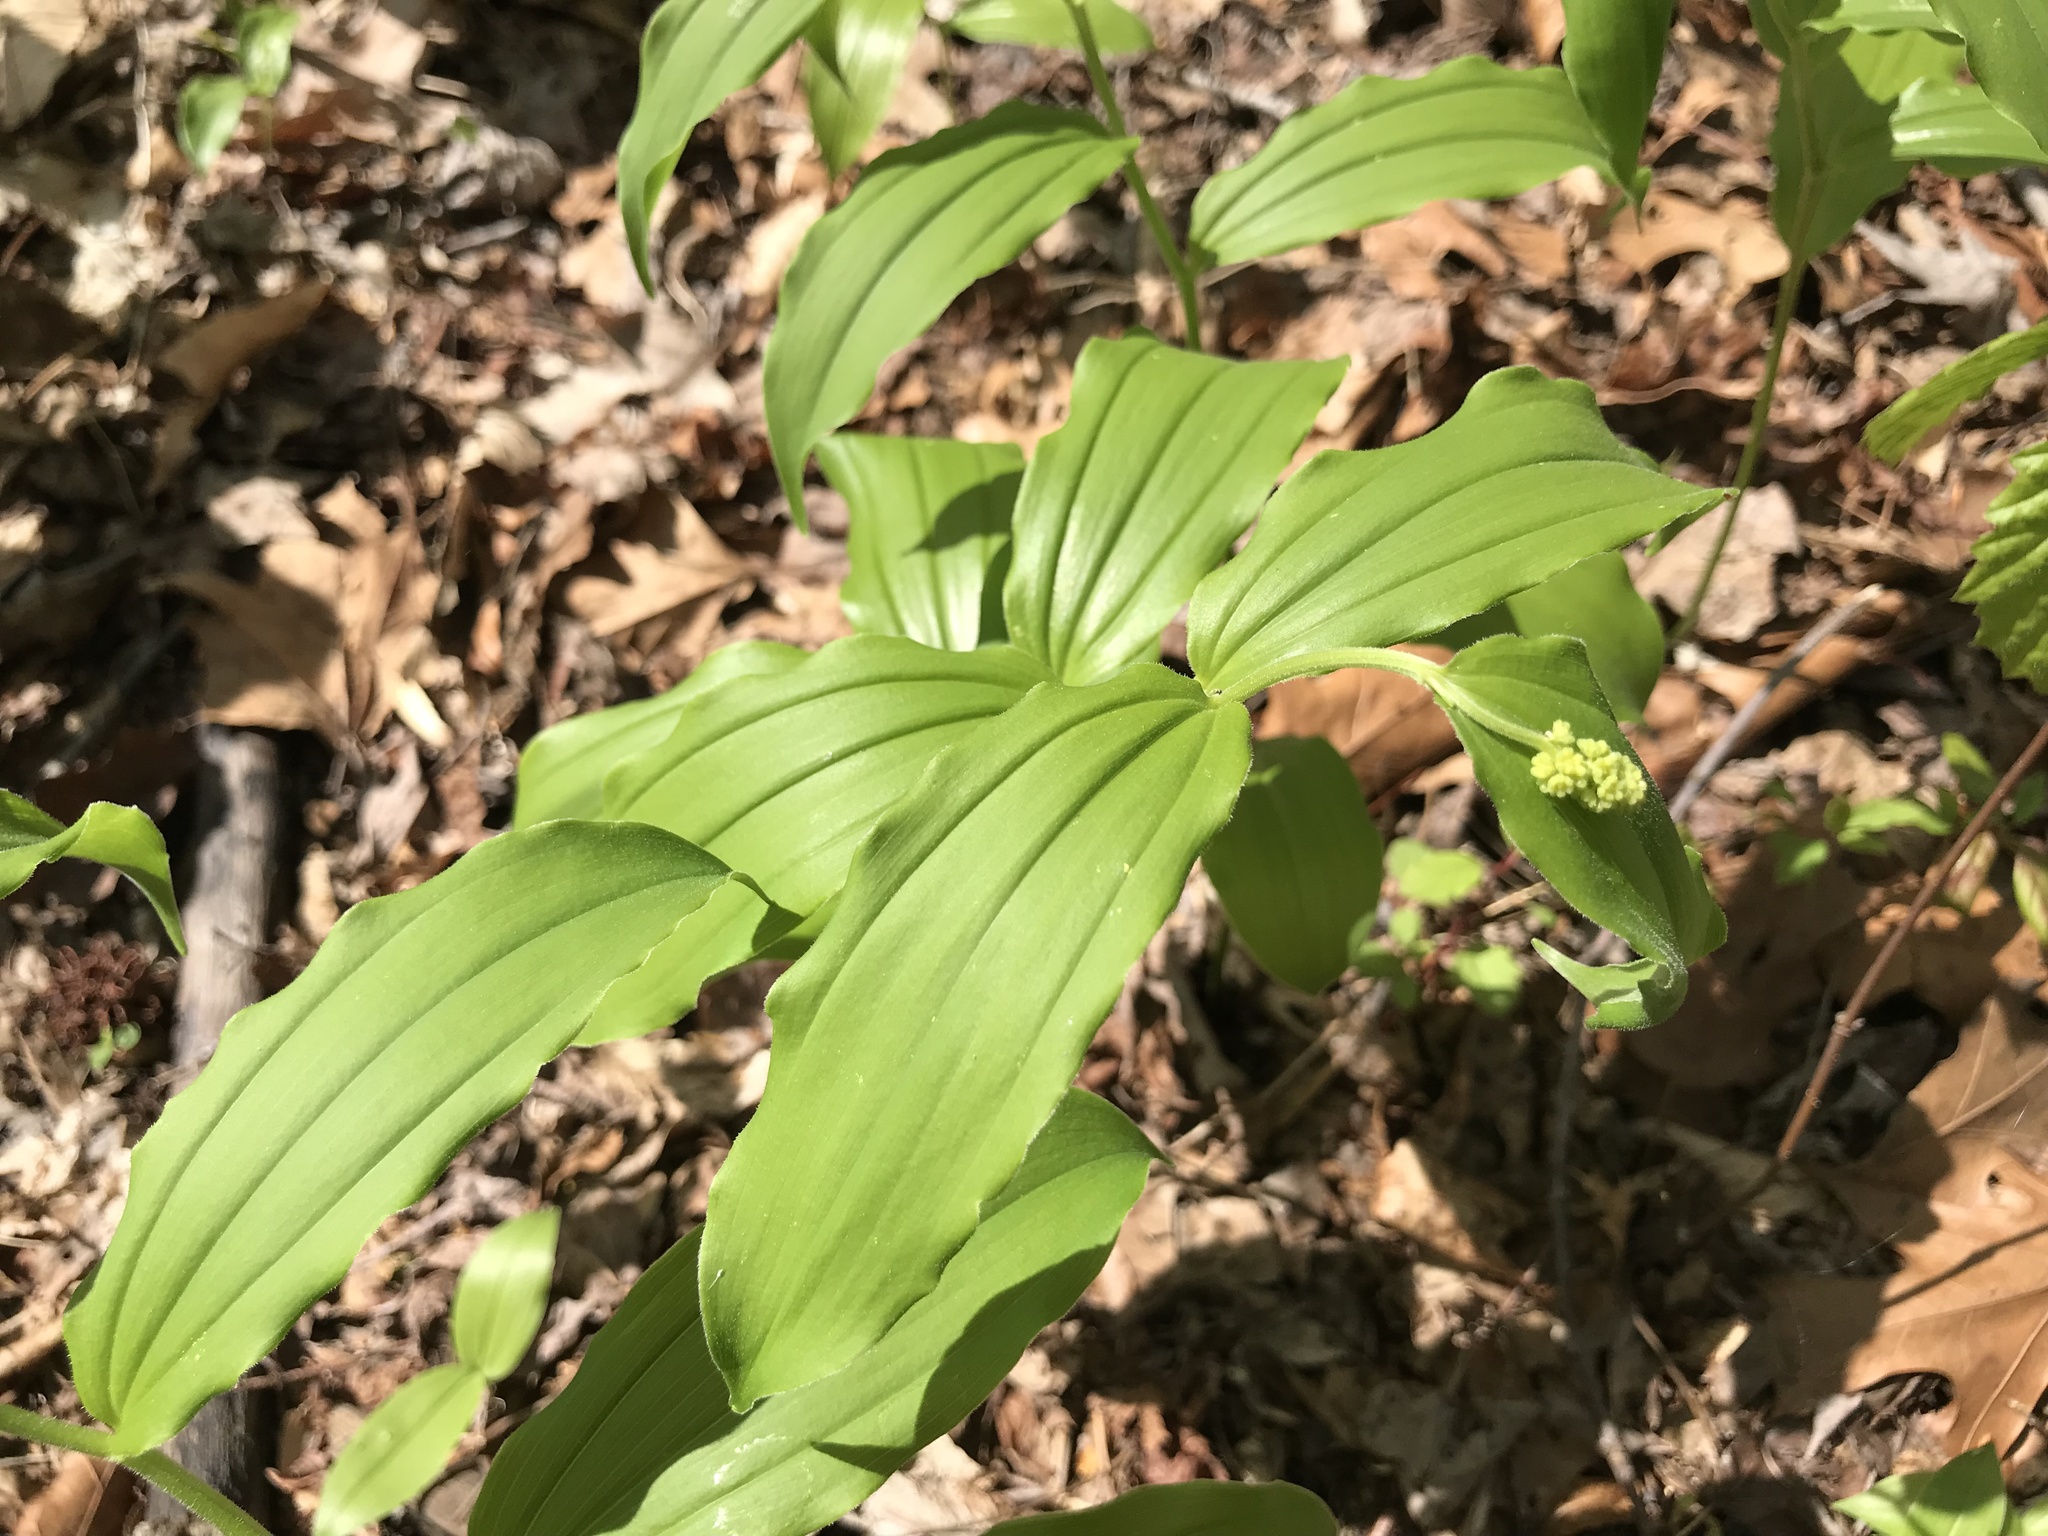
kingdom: Plantae
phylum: Tracheophyta
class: Liliopsida
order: Asparagales
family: Asparagaceae
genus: Maianthemum
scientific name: Maianthemum racemosum
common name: False spikenard
